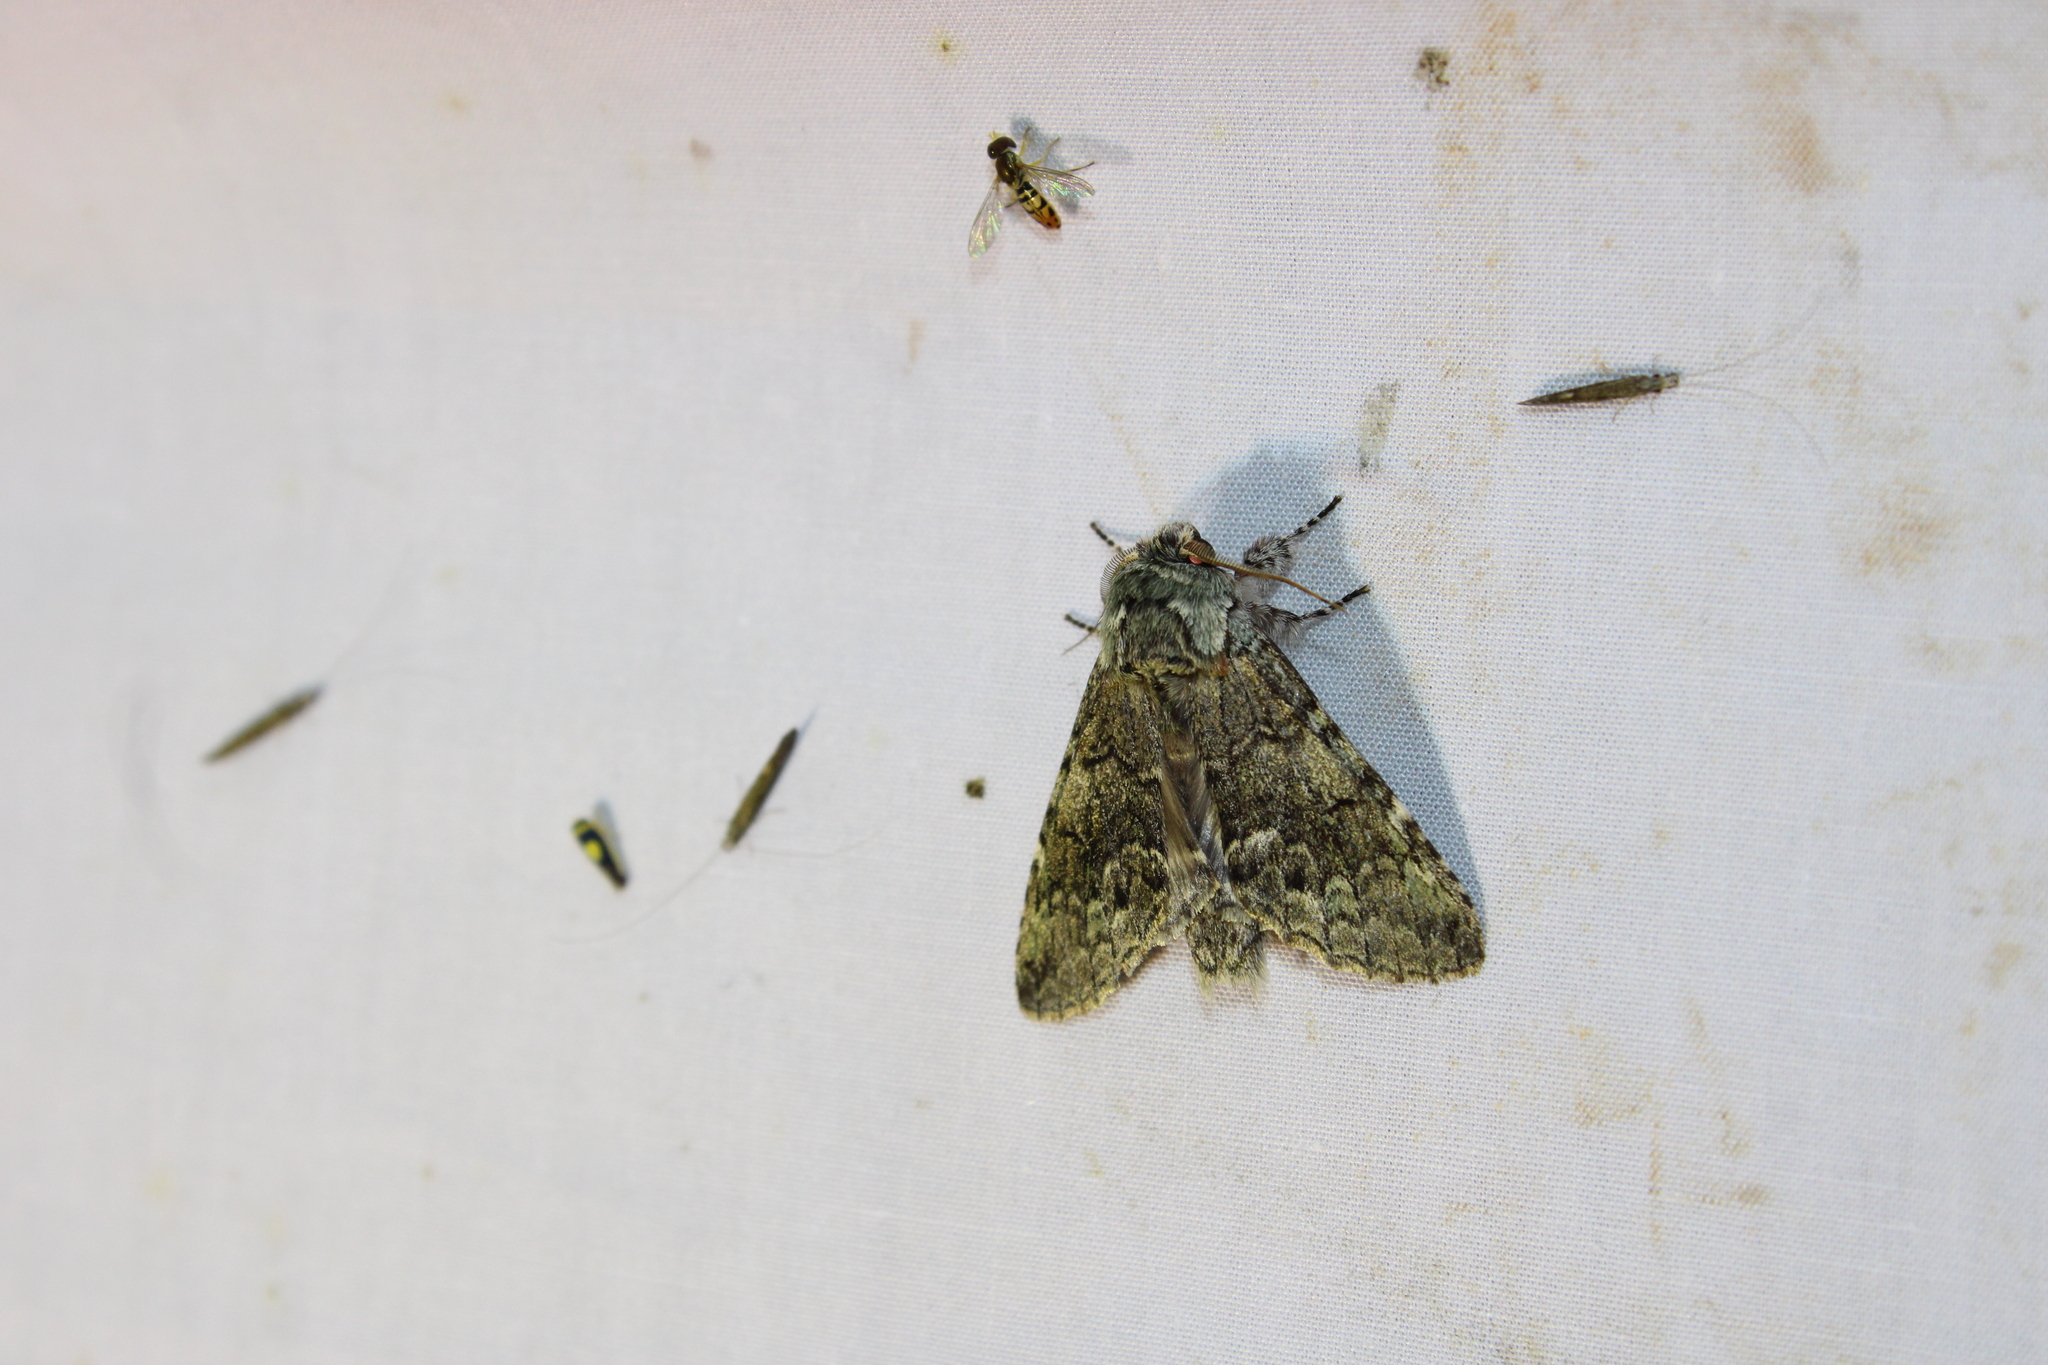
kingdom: Animalia
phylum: Arthropoda
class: Insecta
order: Lepidoptera
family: Notodontidae
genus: Macrurocampa
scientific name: Macrurocampa marthesia
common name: Mottled prominent
